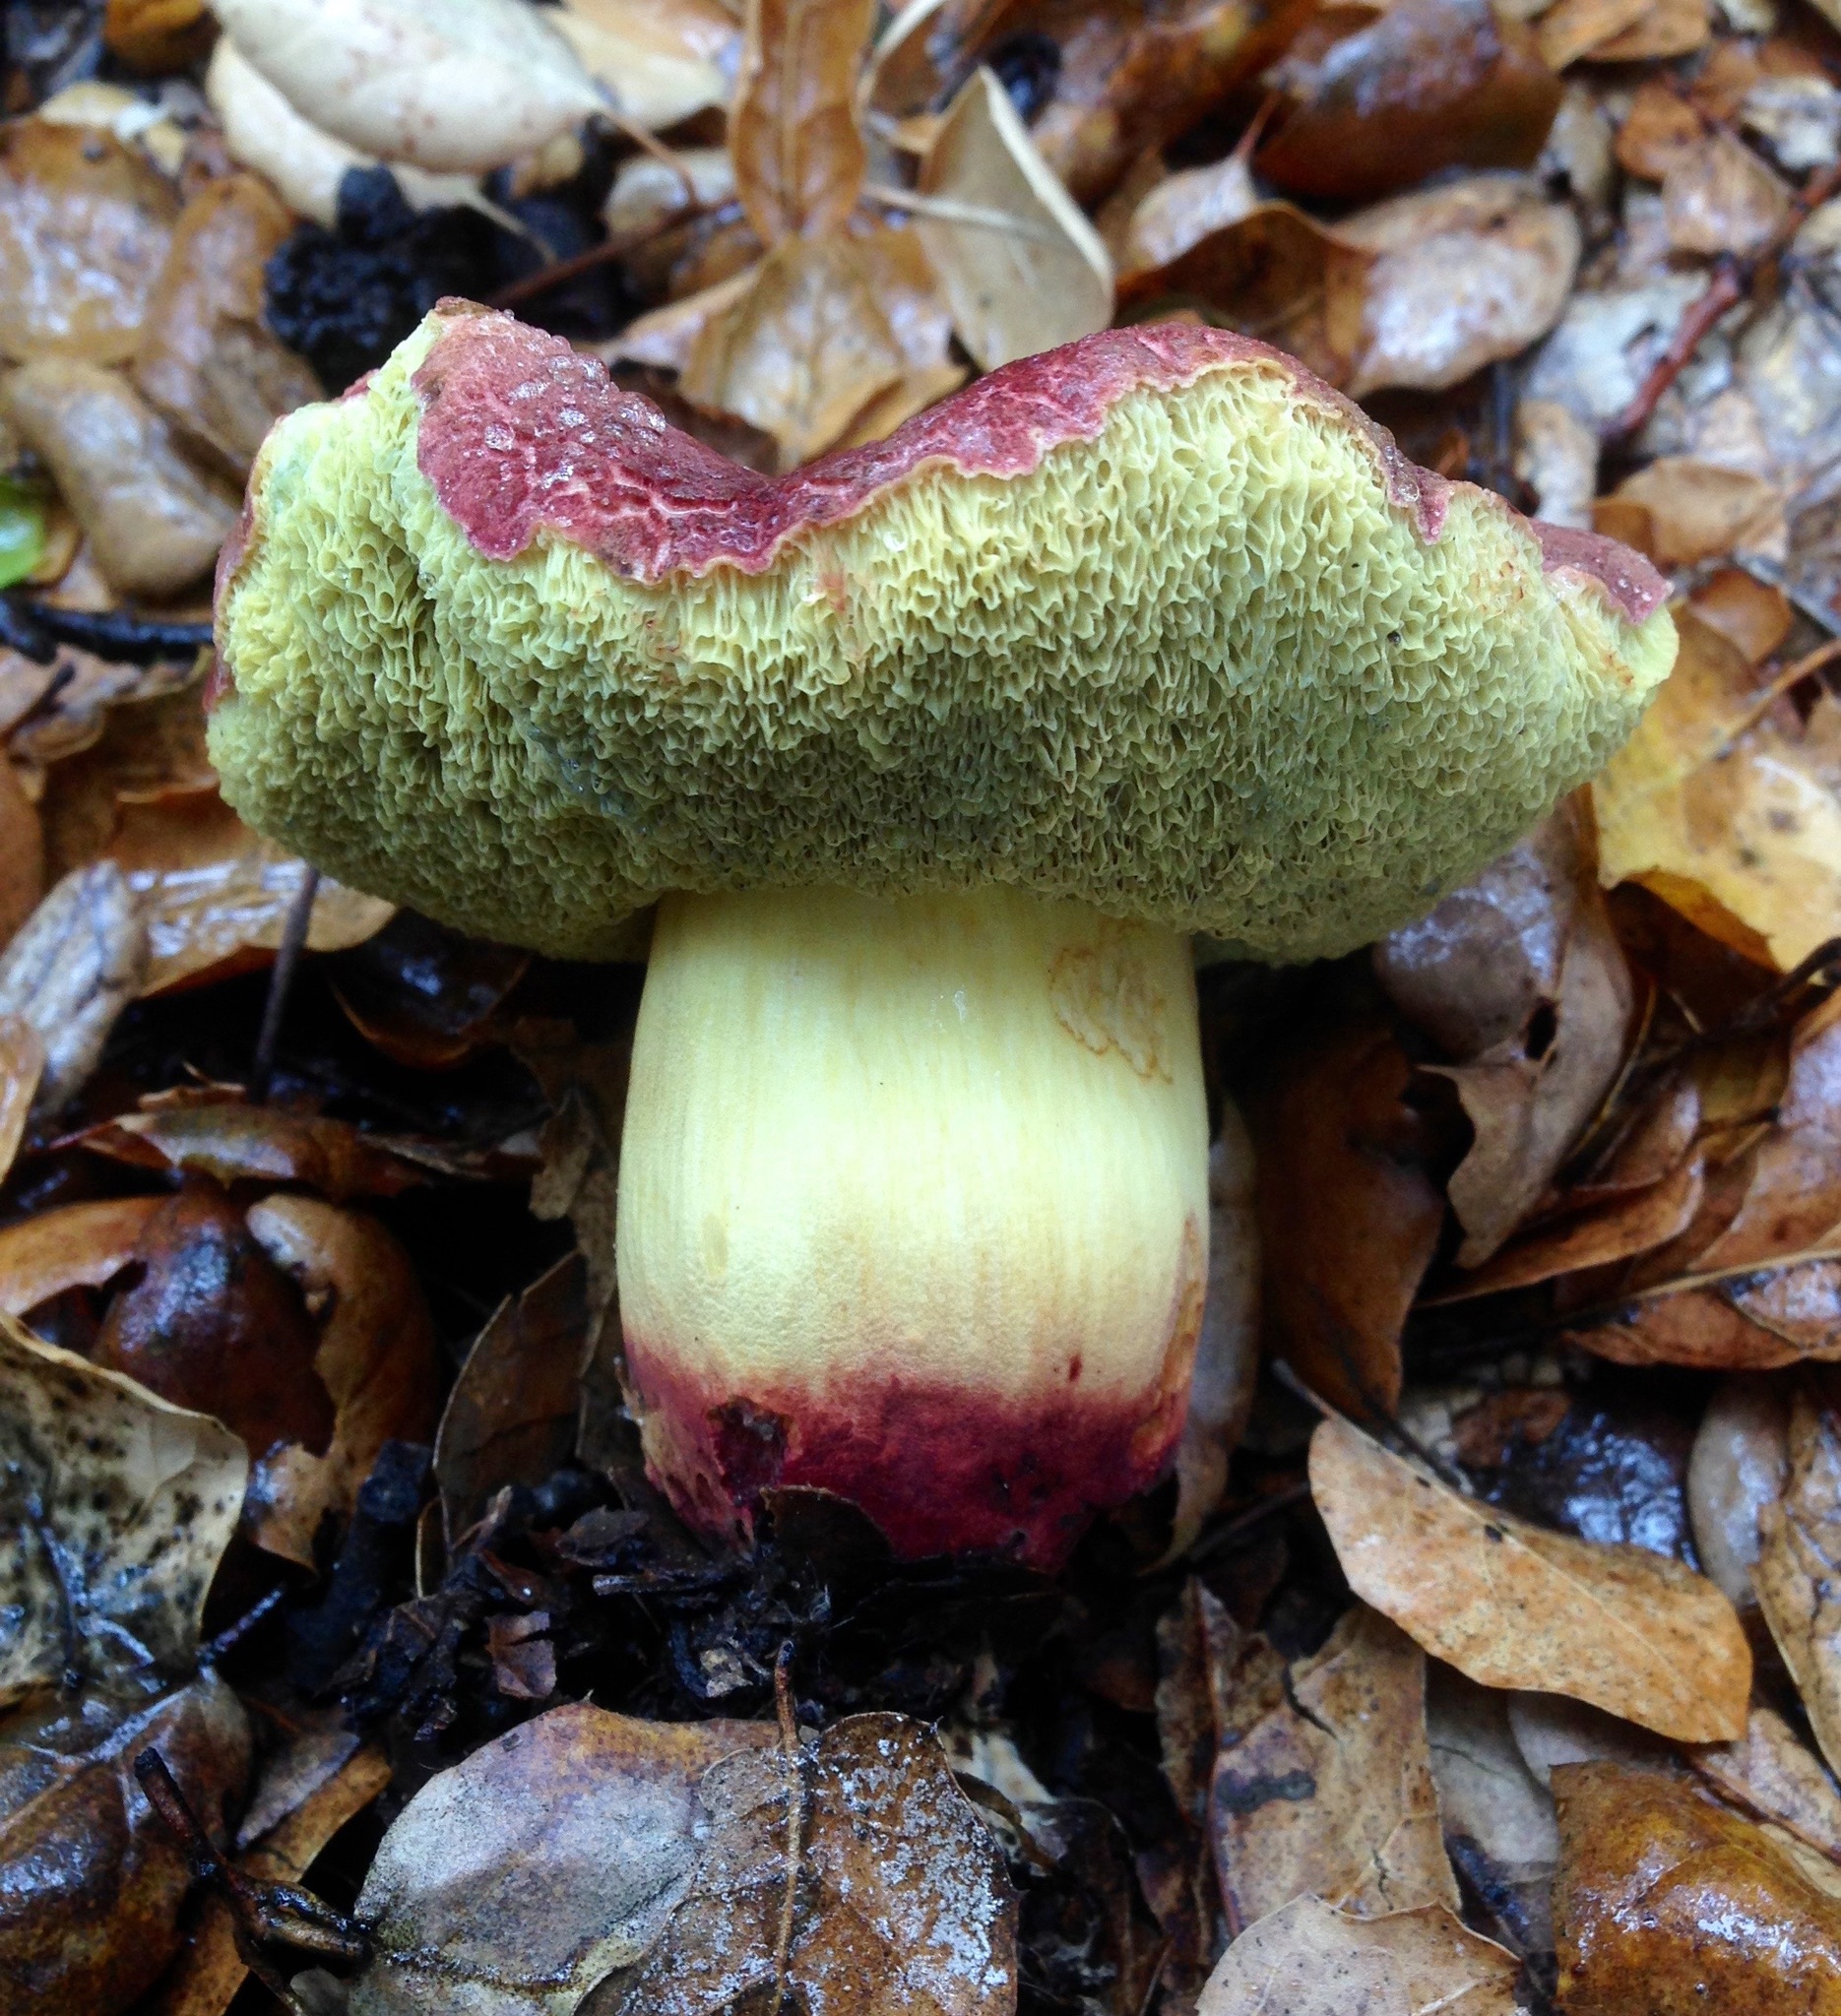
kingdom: Fungi
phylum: Basidiomycota
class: Agaricomycetes
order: Boletales
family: Boletaceae
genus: Xerocomellus
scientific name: Xerocomellus dryophilus
